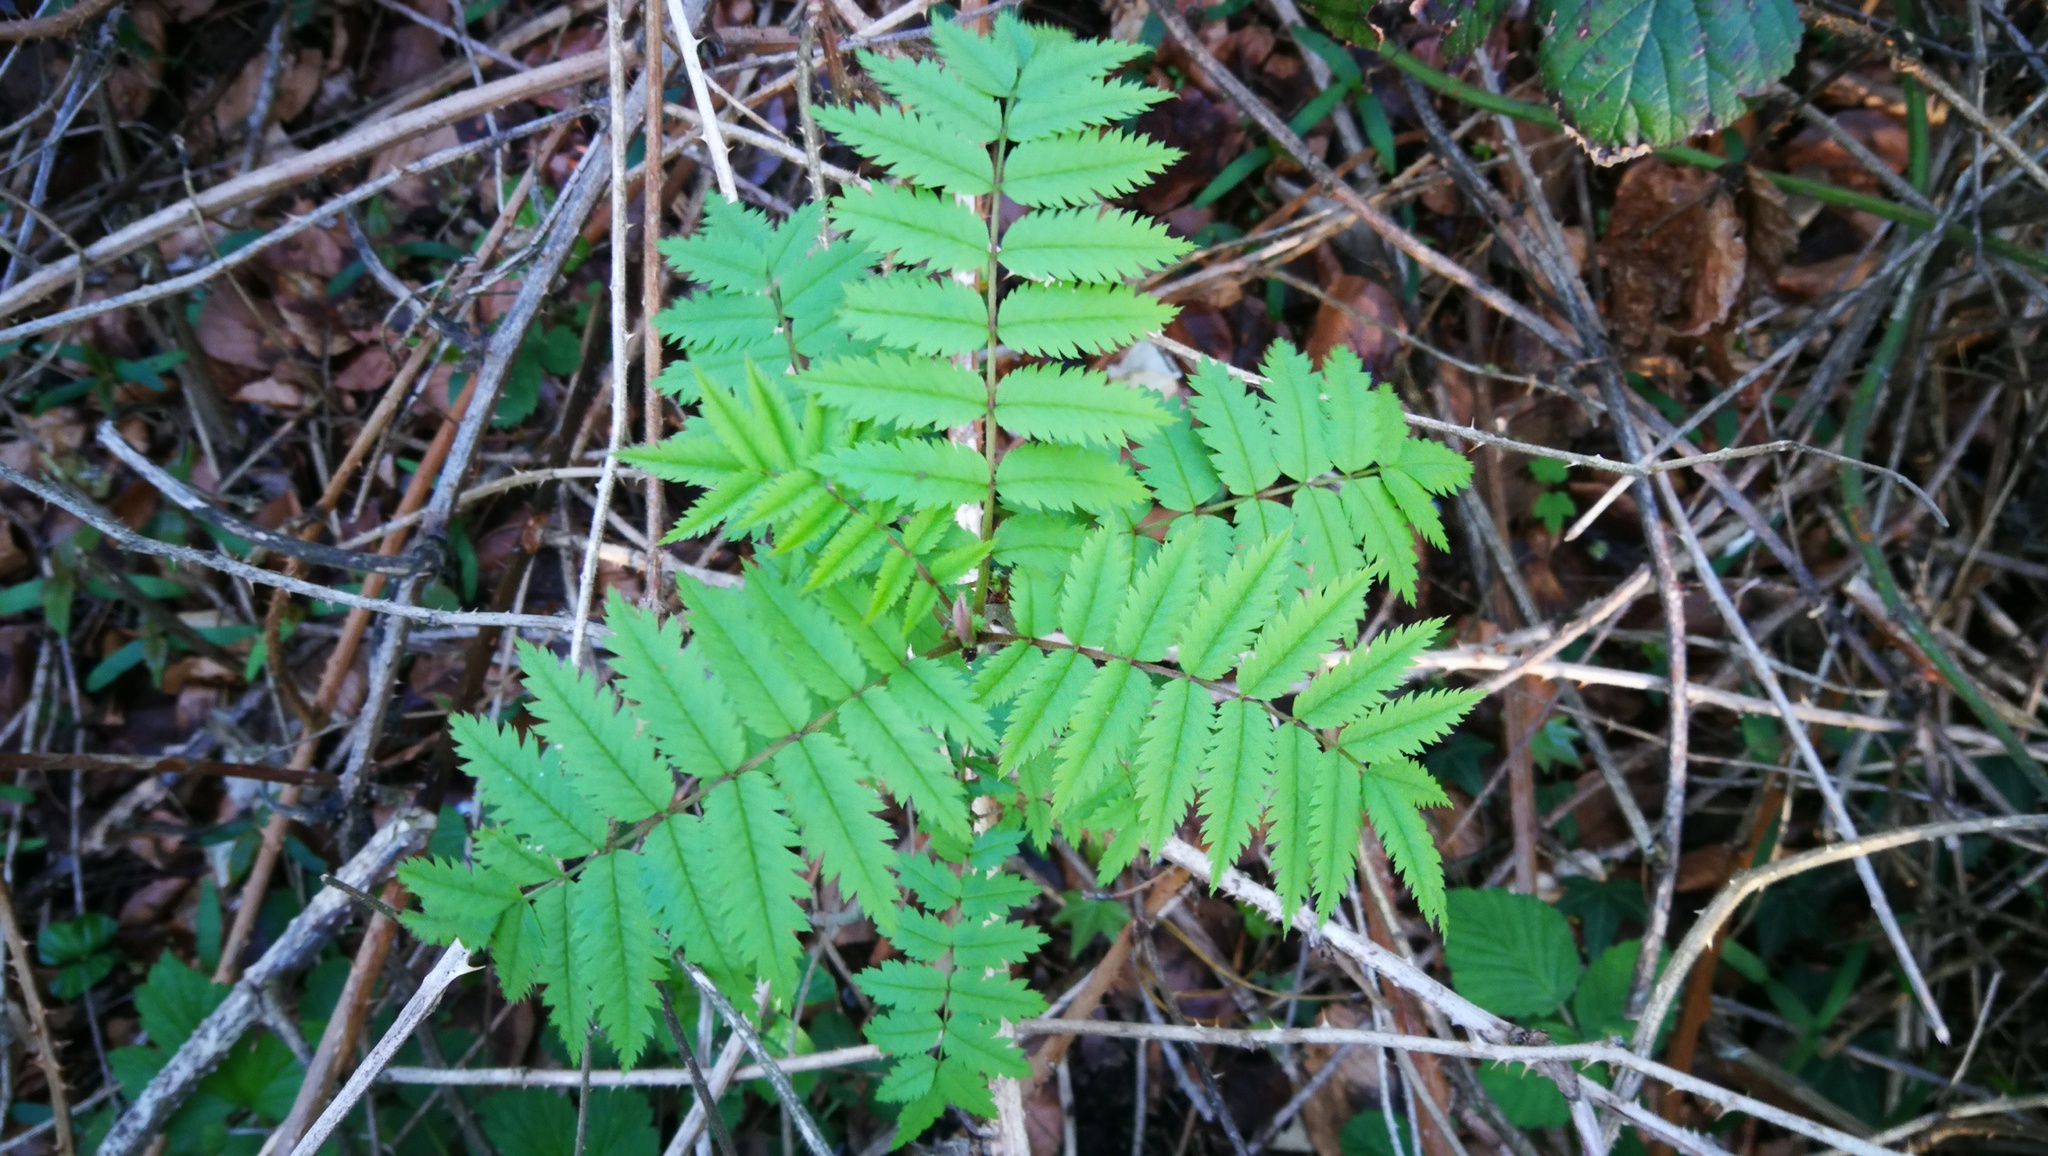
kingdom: Plantae
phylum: Tracheophyta
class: Magnoliopsida
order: Rosales
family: Rosaceae
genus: Sorbus
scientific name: Sorbus aucuparia
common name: Rowan
